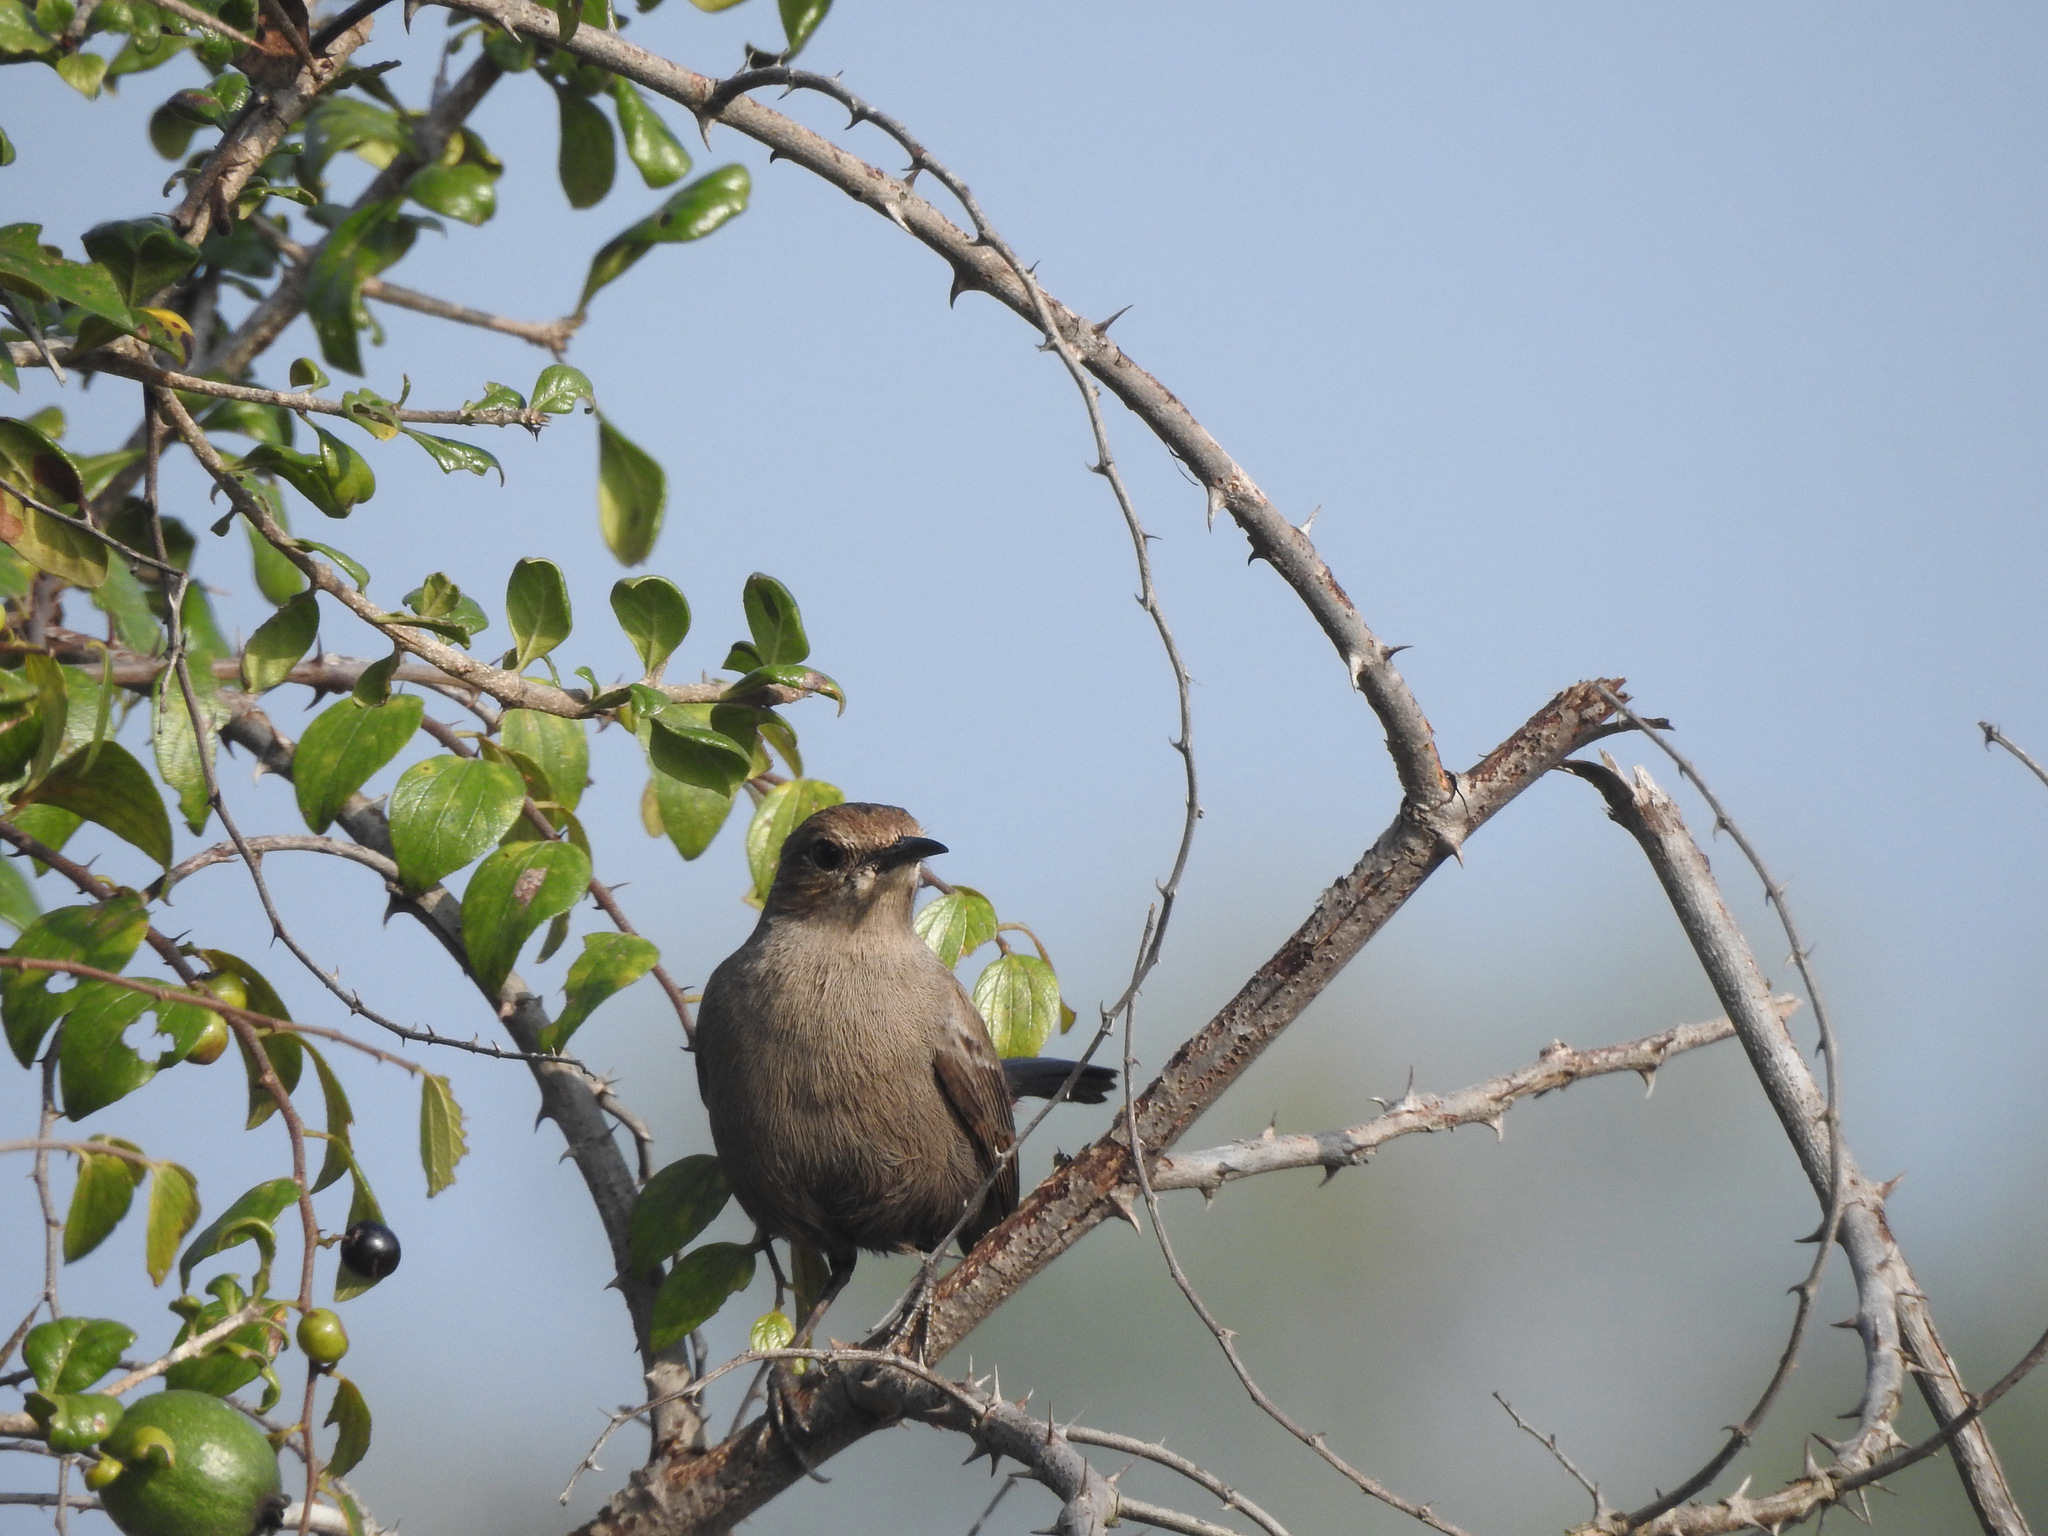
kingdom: Animalia
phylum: Chordata
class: Aves
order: Passeriformes
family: Muscicapidae
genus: Saxicoloides
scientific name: Saxicoloides fulicatus
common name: Indian robin
